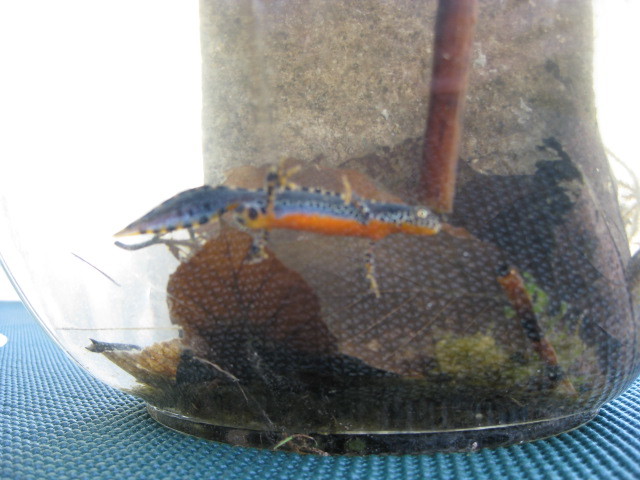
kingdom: Animalia
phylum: Chordata
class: Amphibia
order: Caudata
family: Salamandridae
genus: Ichthyosaura
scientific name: Ichthyosaura alpestris
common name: Alpine newt
